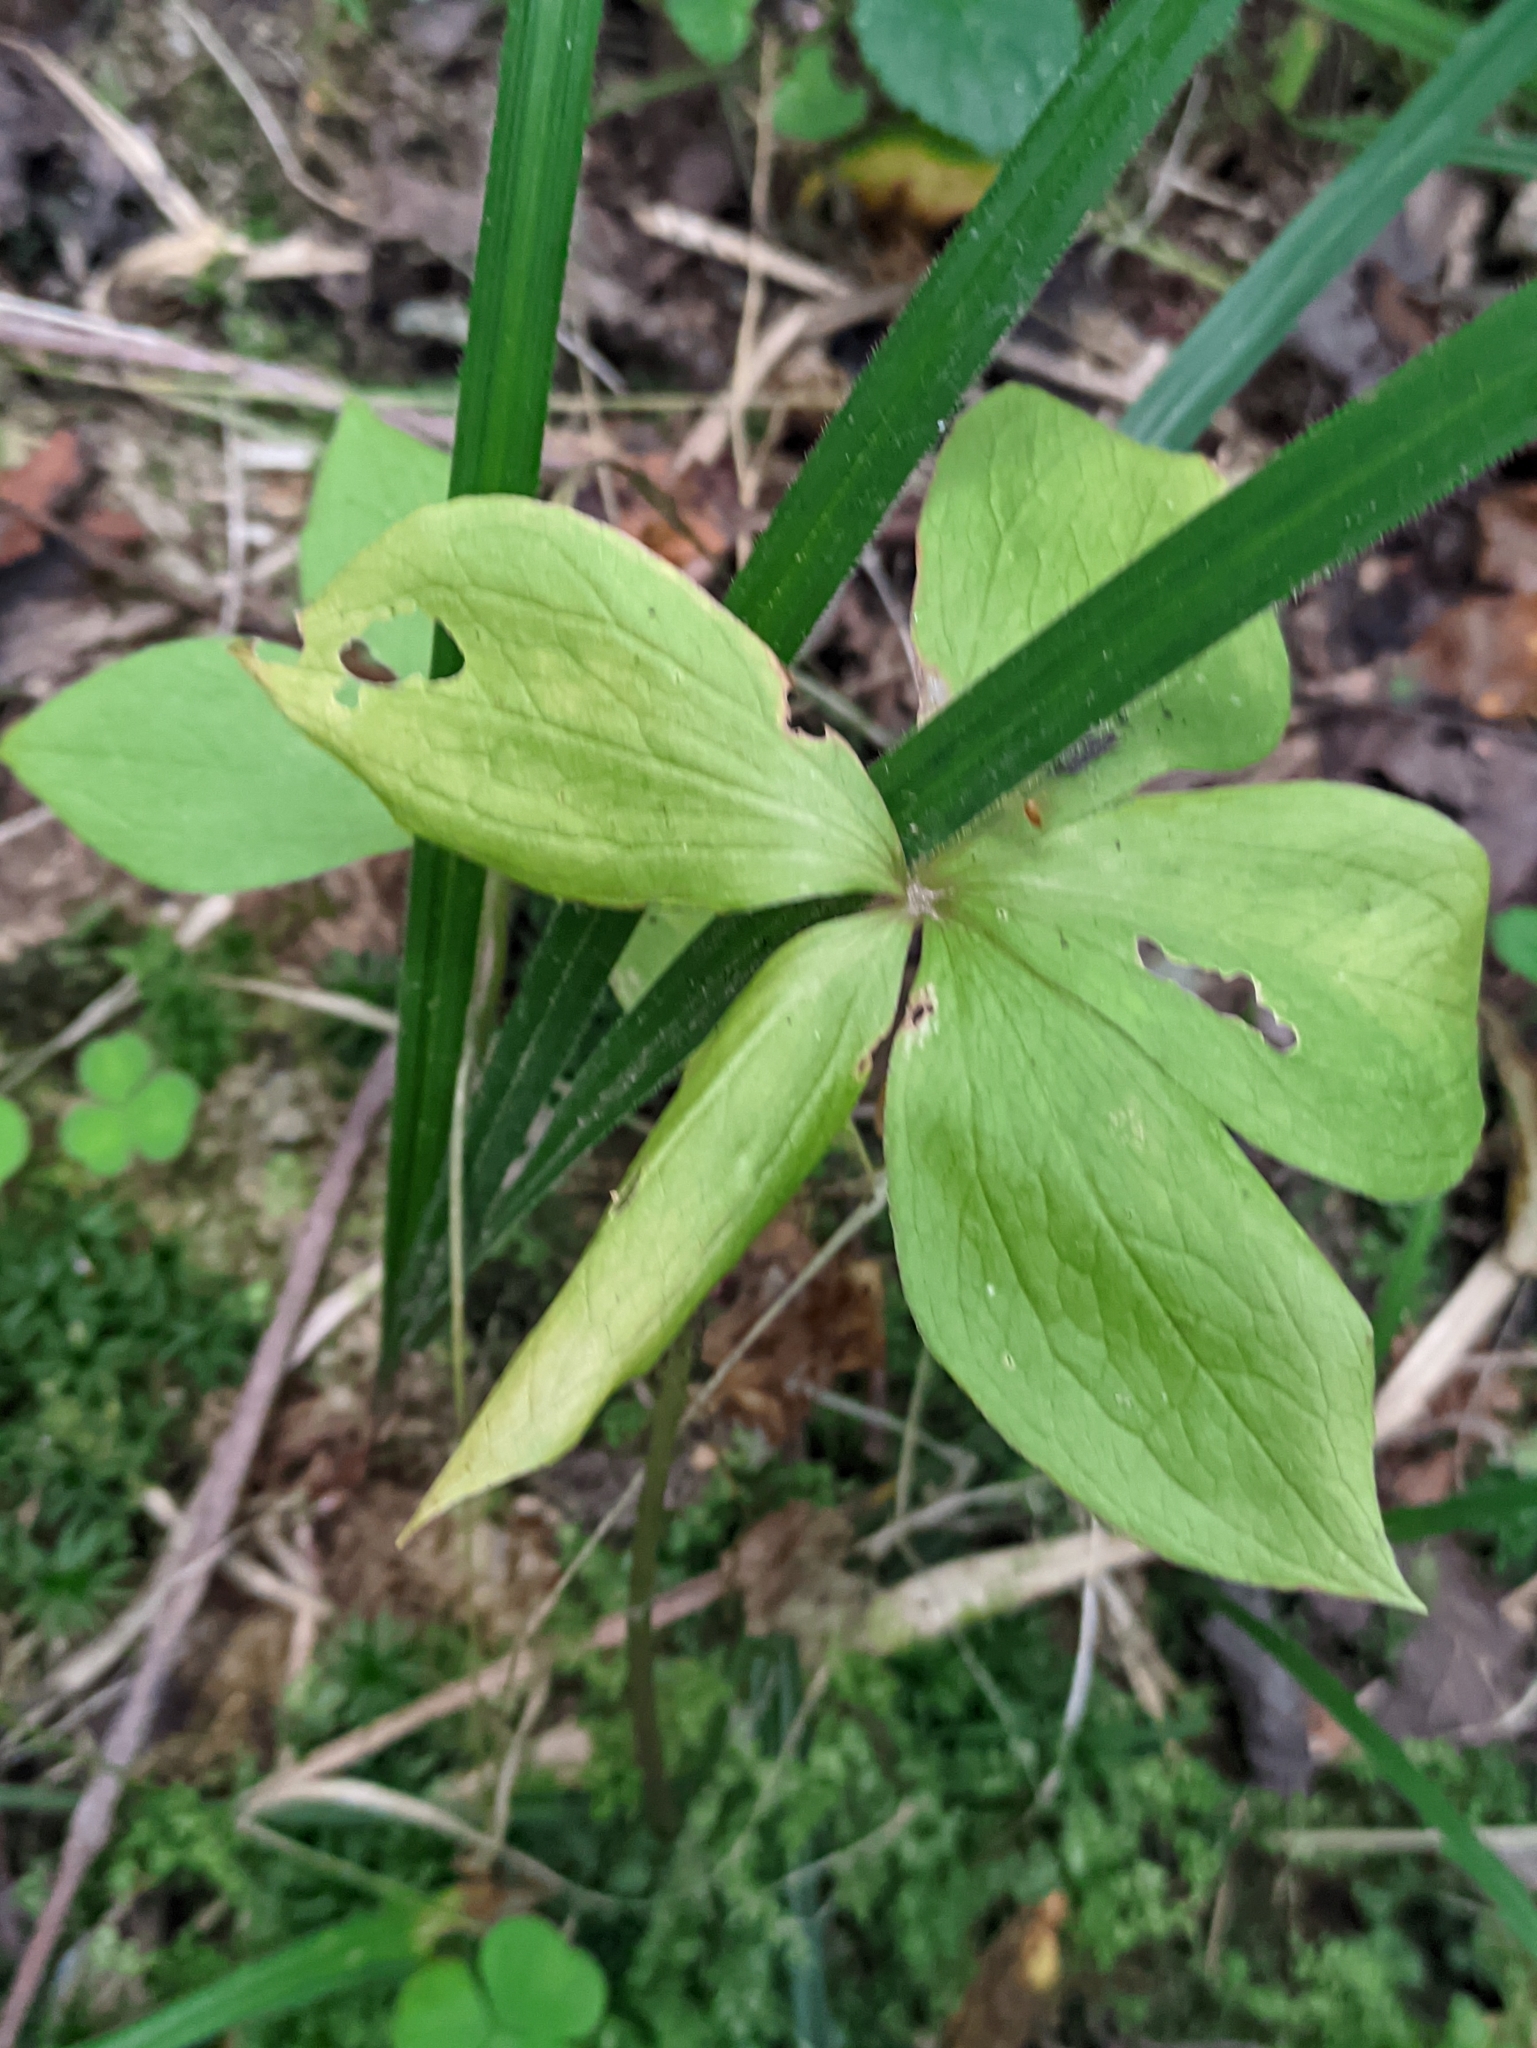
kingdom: Plantae
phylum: Tracheophyta
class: Liliopsida
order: Liliales
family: Melanthiaceae
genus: Paris
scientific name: Paris quadrifolia
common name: Herb-paris
